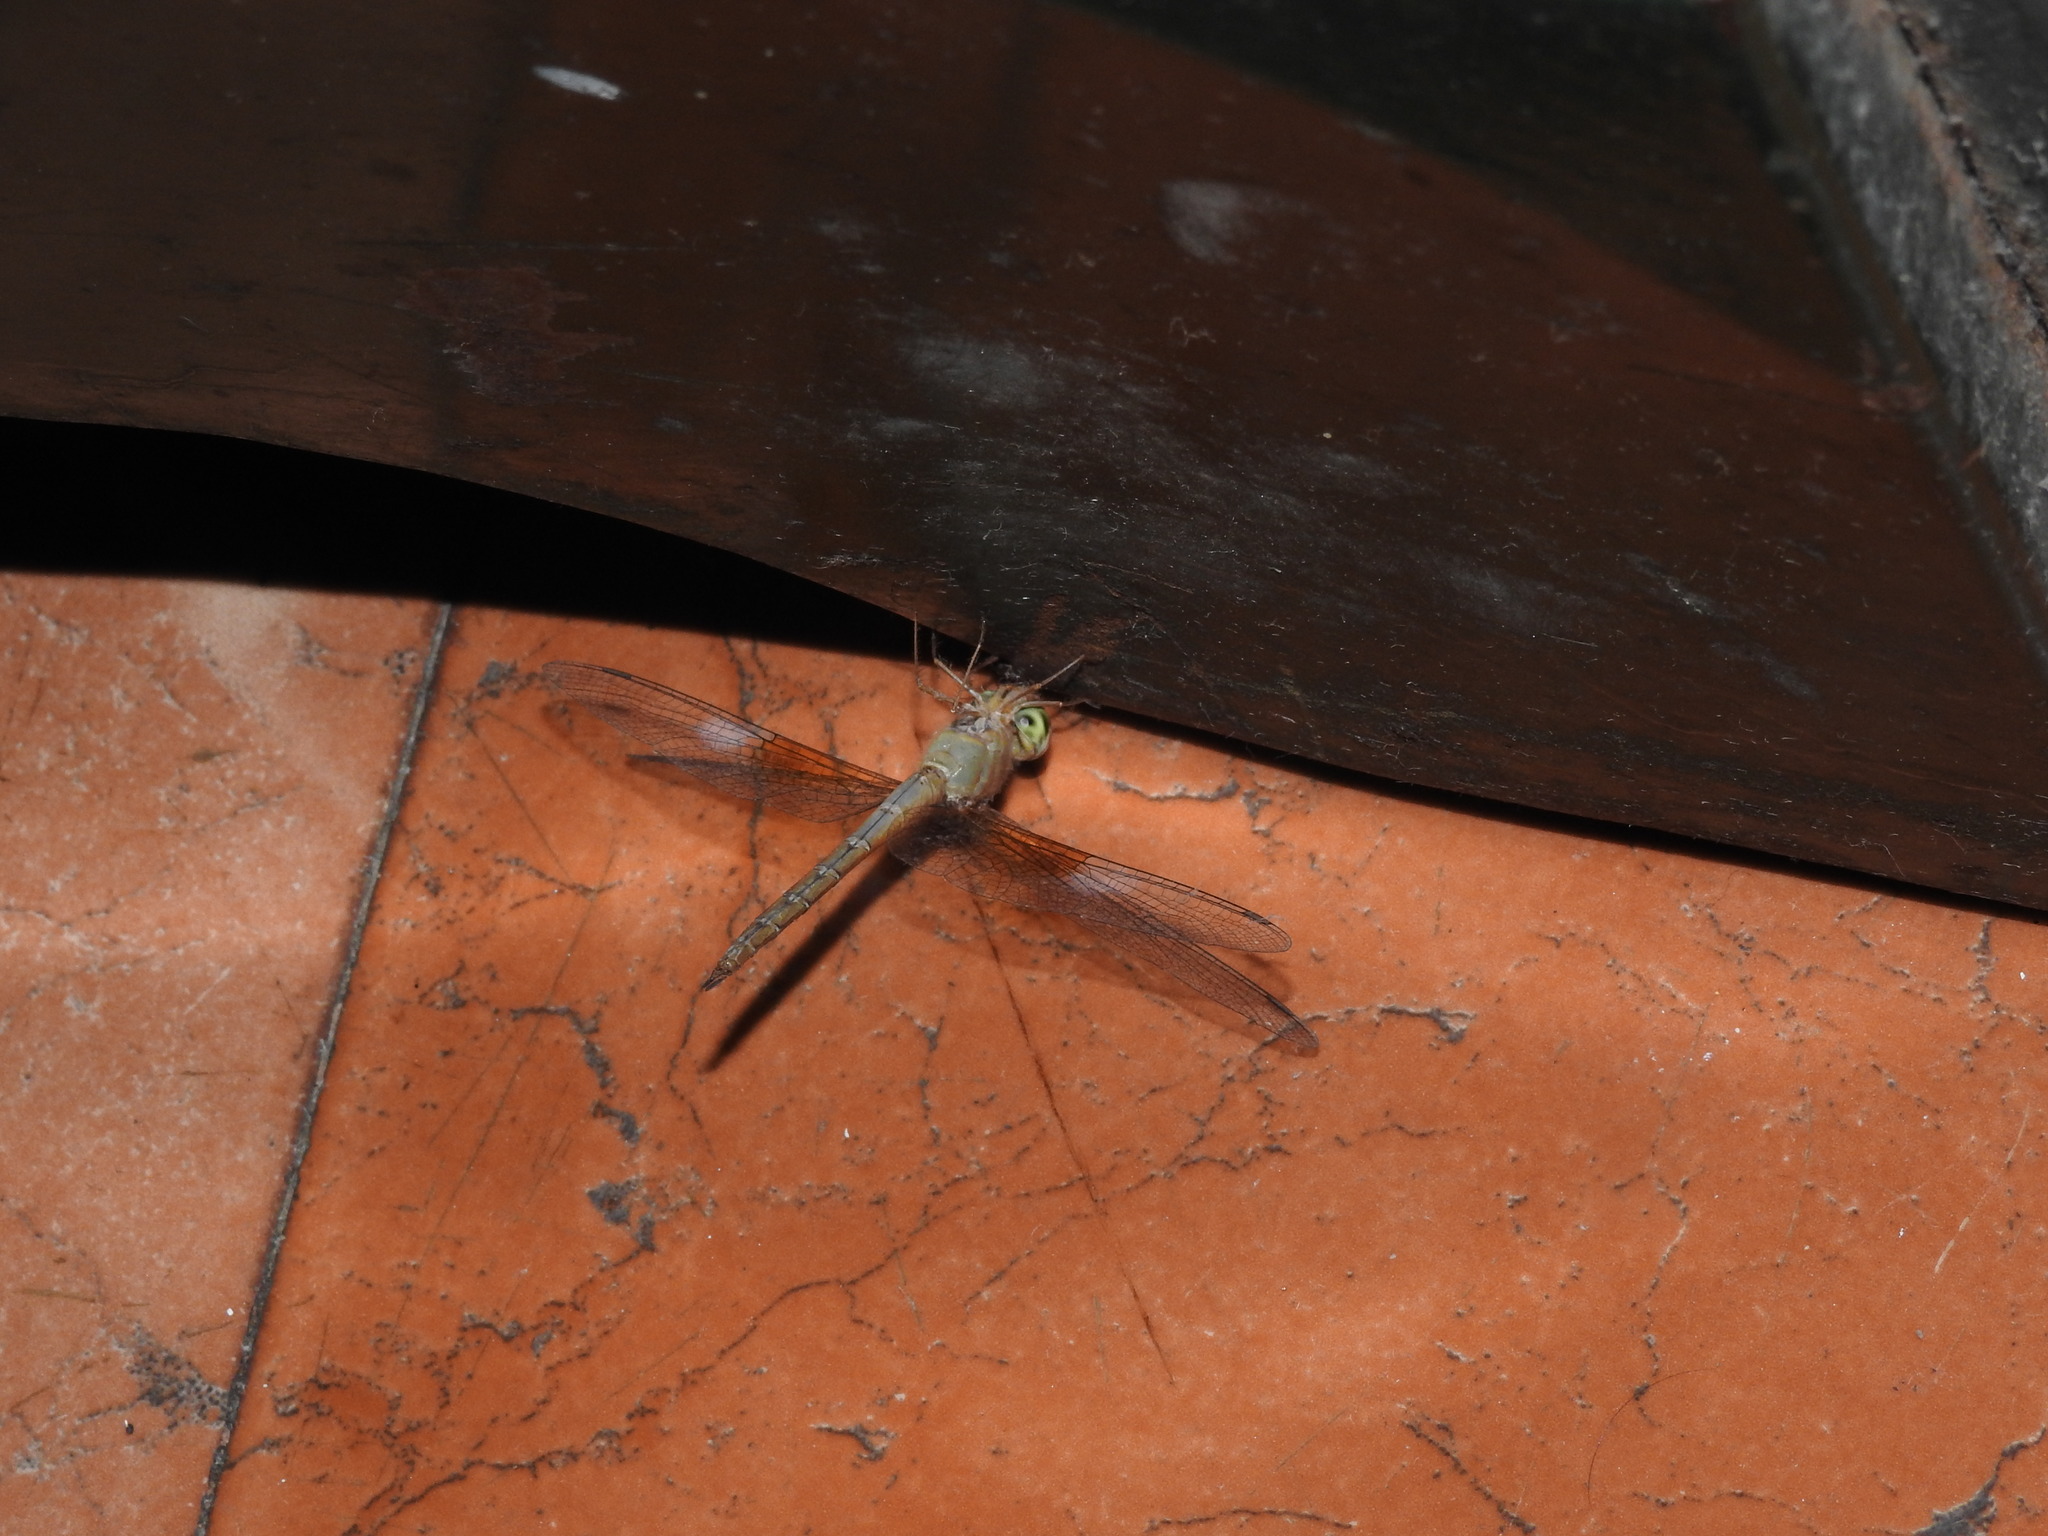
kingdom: Animalia
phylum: Arthropoda
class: Insecta
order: Odonata
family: Libellulidae
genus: Tholymis
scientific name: Tholymis tillarga
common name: Coral-tailed cloud wing
